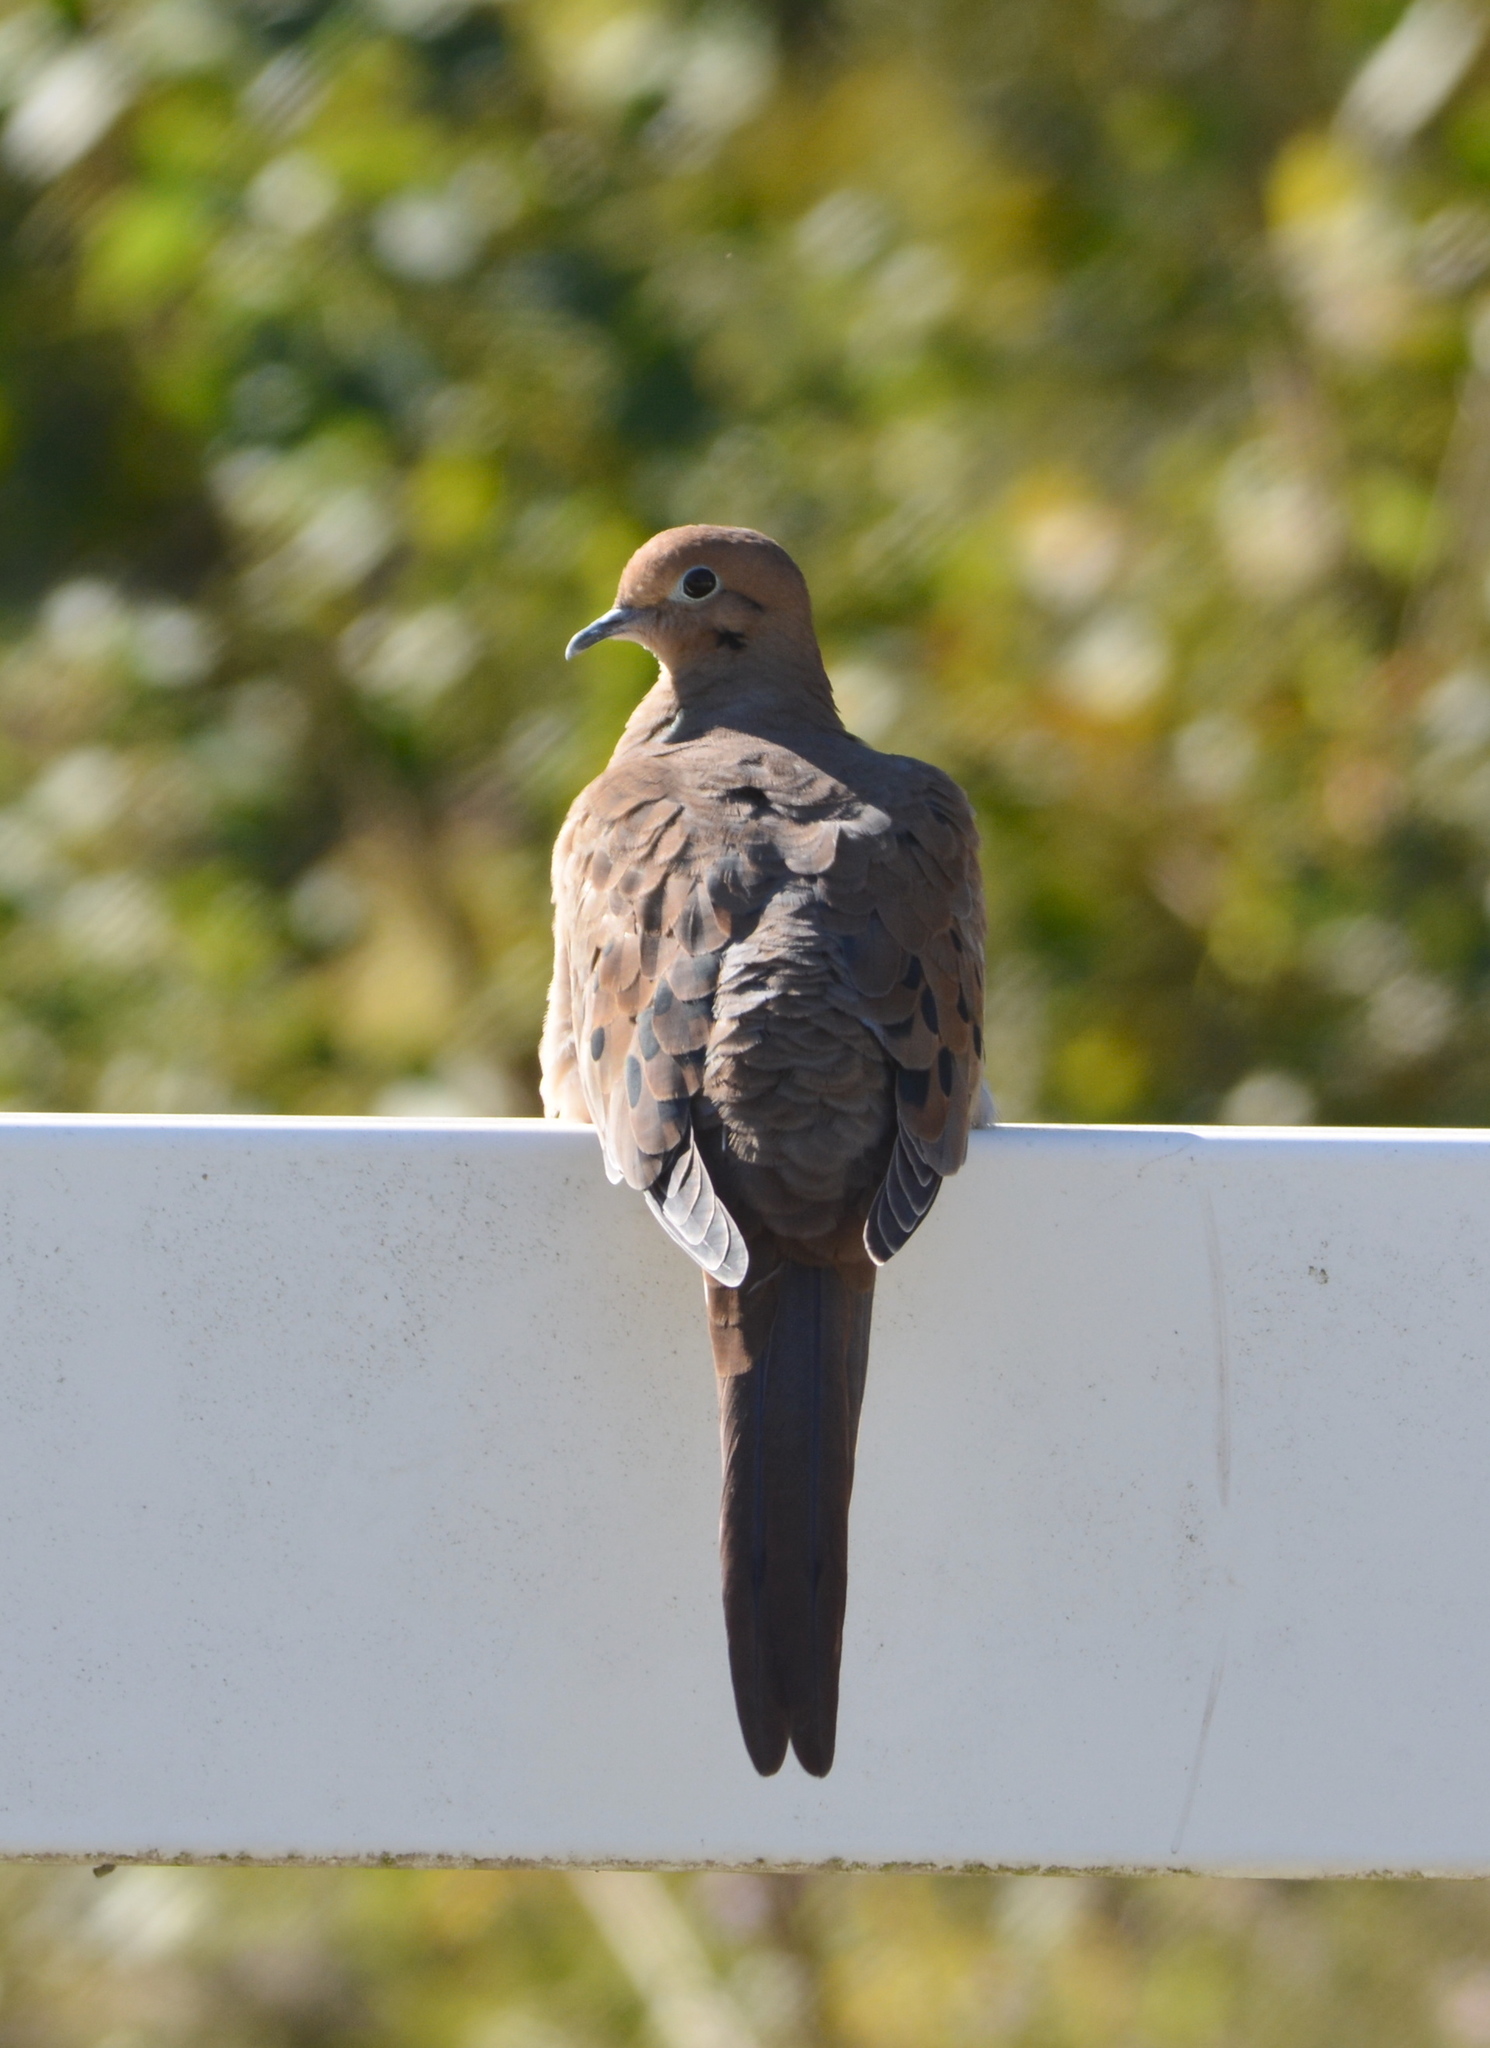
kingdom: Animalia
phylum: Chordata
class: Aves
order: Columbiformes
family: Columbidae
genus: Zenaida
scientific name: Zenaida macroura
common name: Mourning dove
